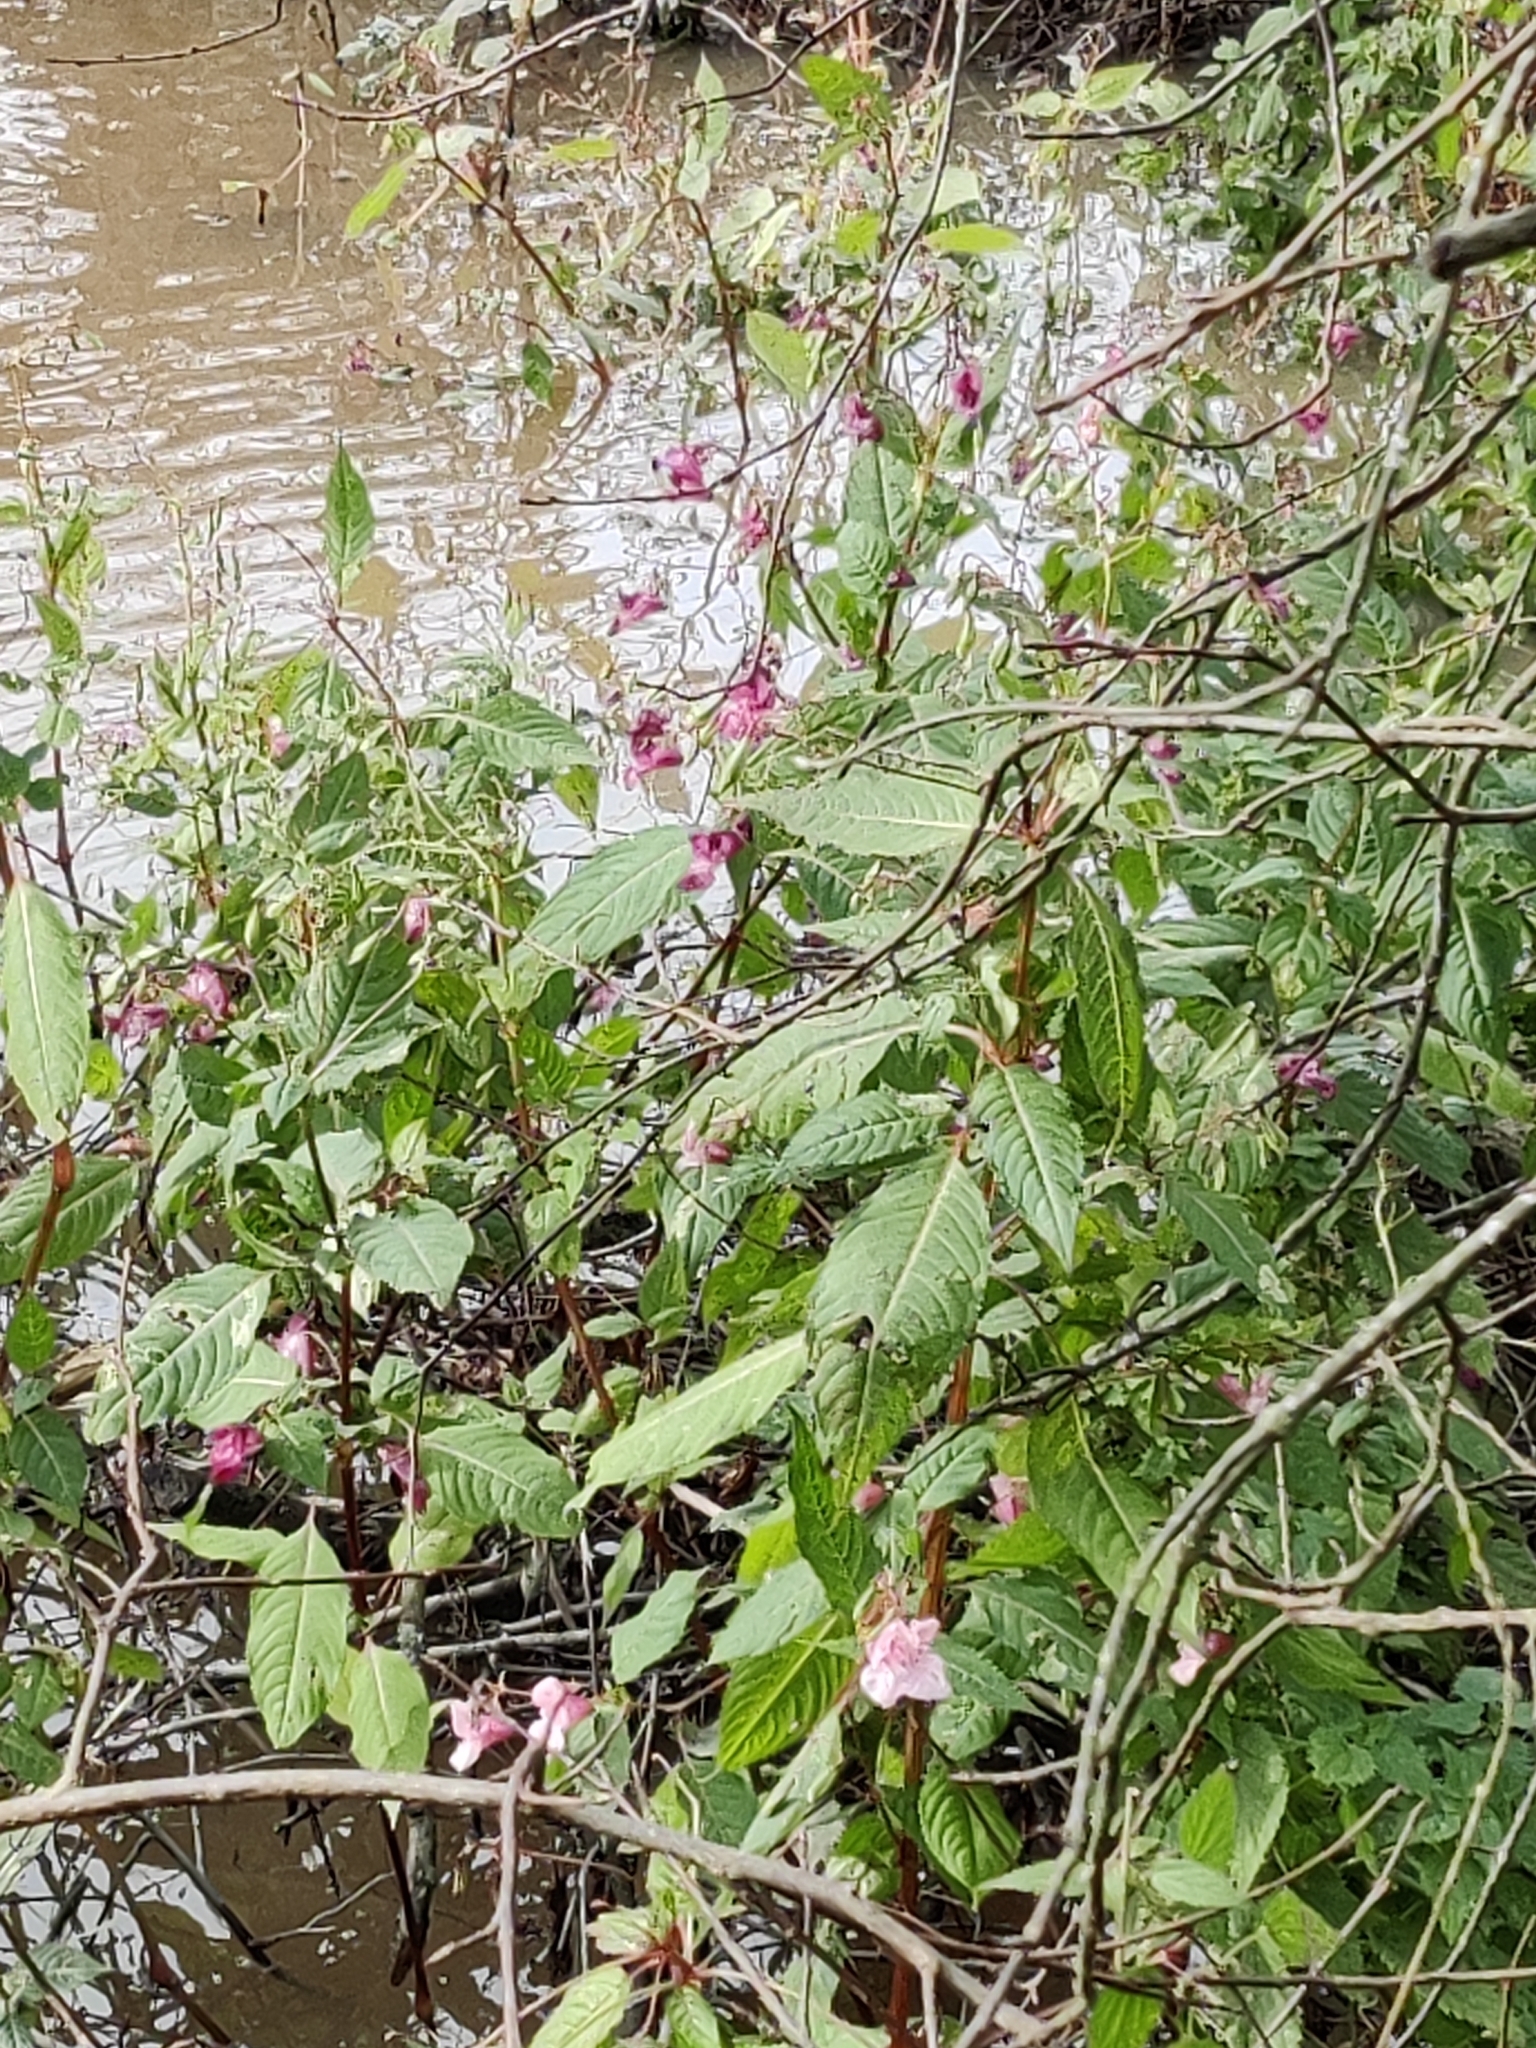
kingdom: Plantae
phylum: Tracheophyta
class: Magnoliopsida
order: Ericales
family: Balsaminaceae
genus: Impatiens
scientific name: Impatiens glandulifera
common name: Himalayan balsam
